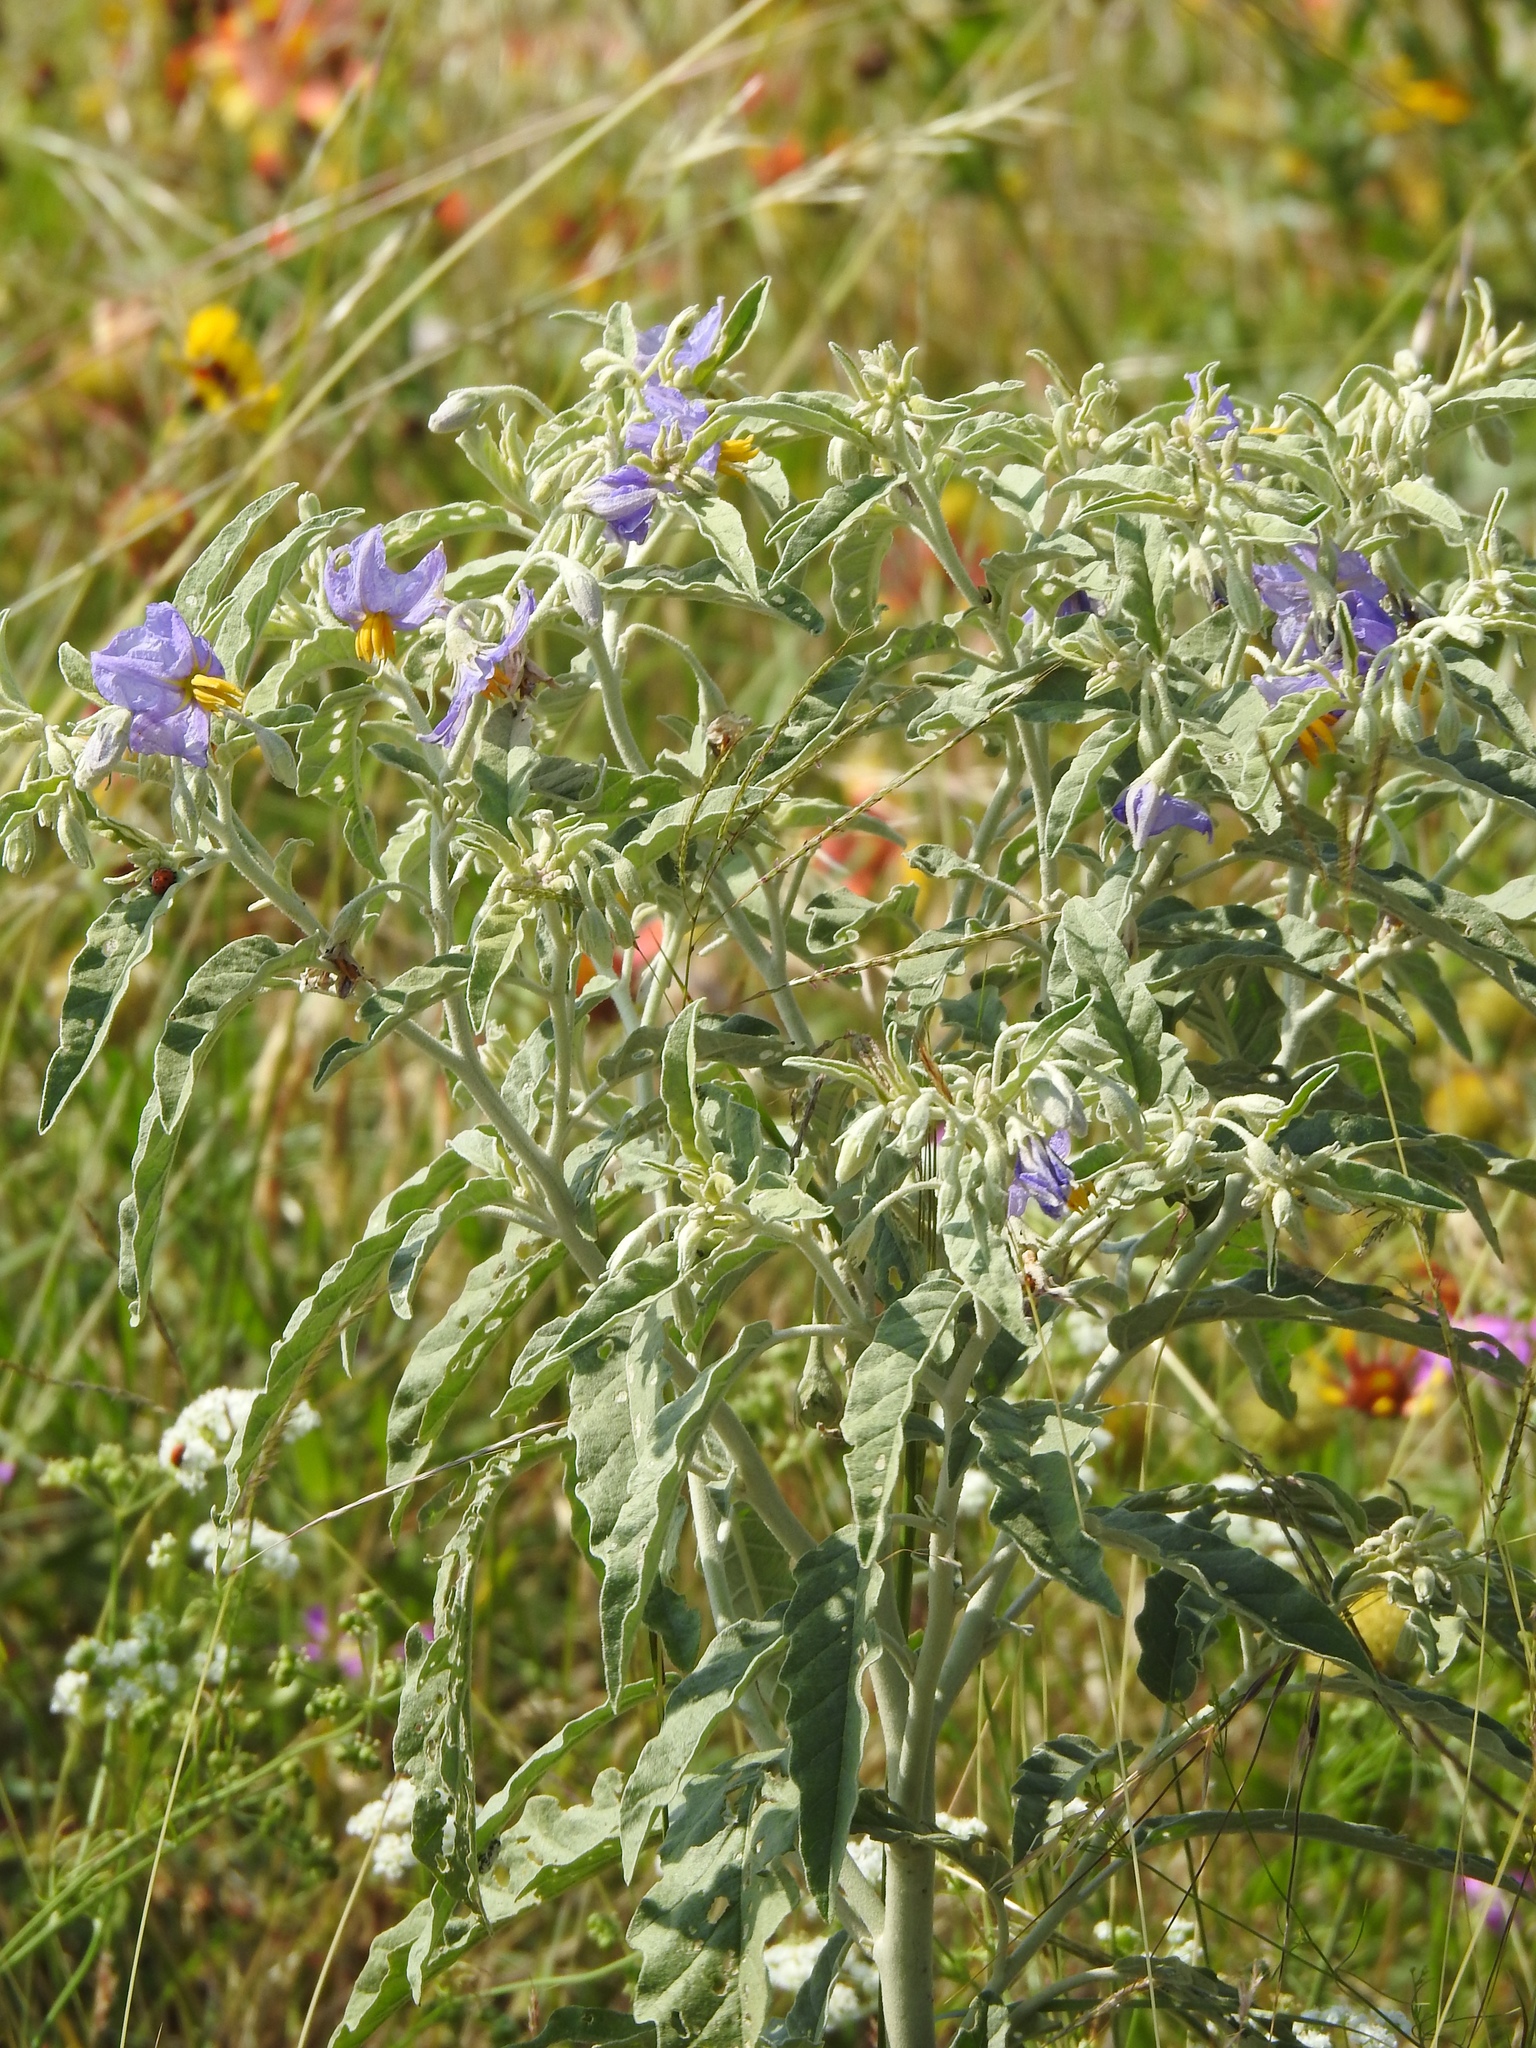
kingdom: Plantae
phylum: Tracheophyta
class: Magnoliopsida
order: Solanales
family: Solanaceae
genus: Solanum
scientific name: Solanum elaeagnifolium
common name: Silverleaf nightshade
